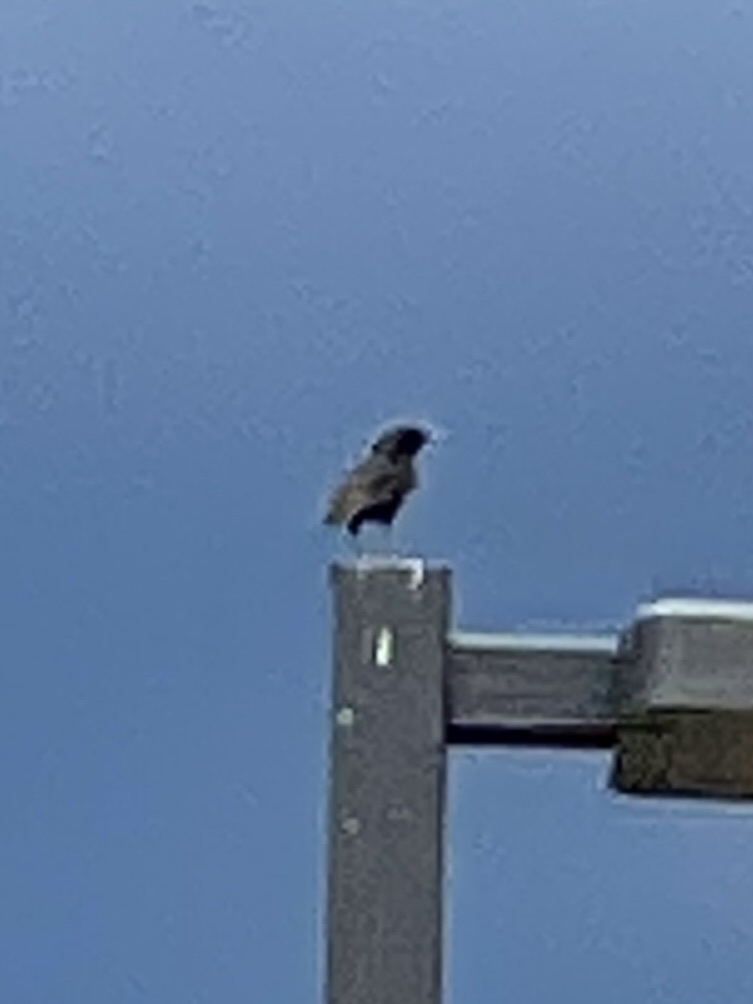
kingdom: Animalia
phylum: Chordata
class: Aves
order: Passeriformes
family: Sturnidae
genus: Sturnus
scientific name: Sturnus vulgaris
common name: Common starling
